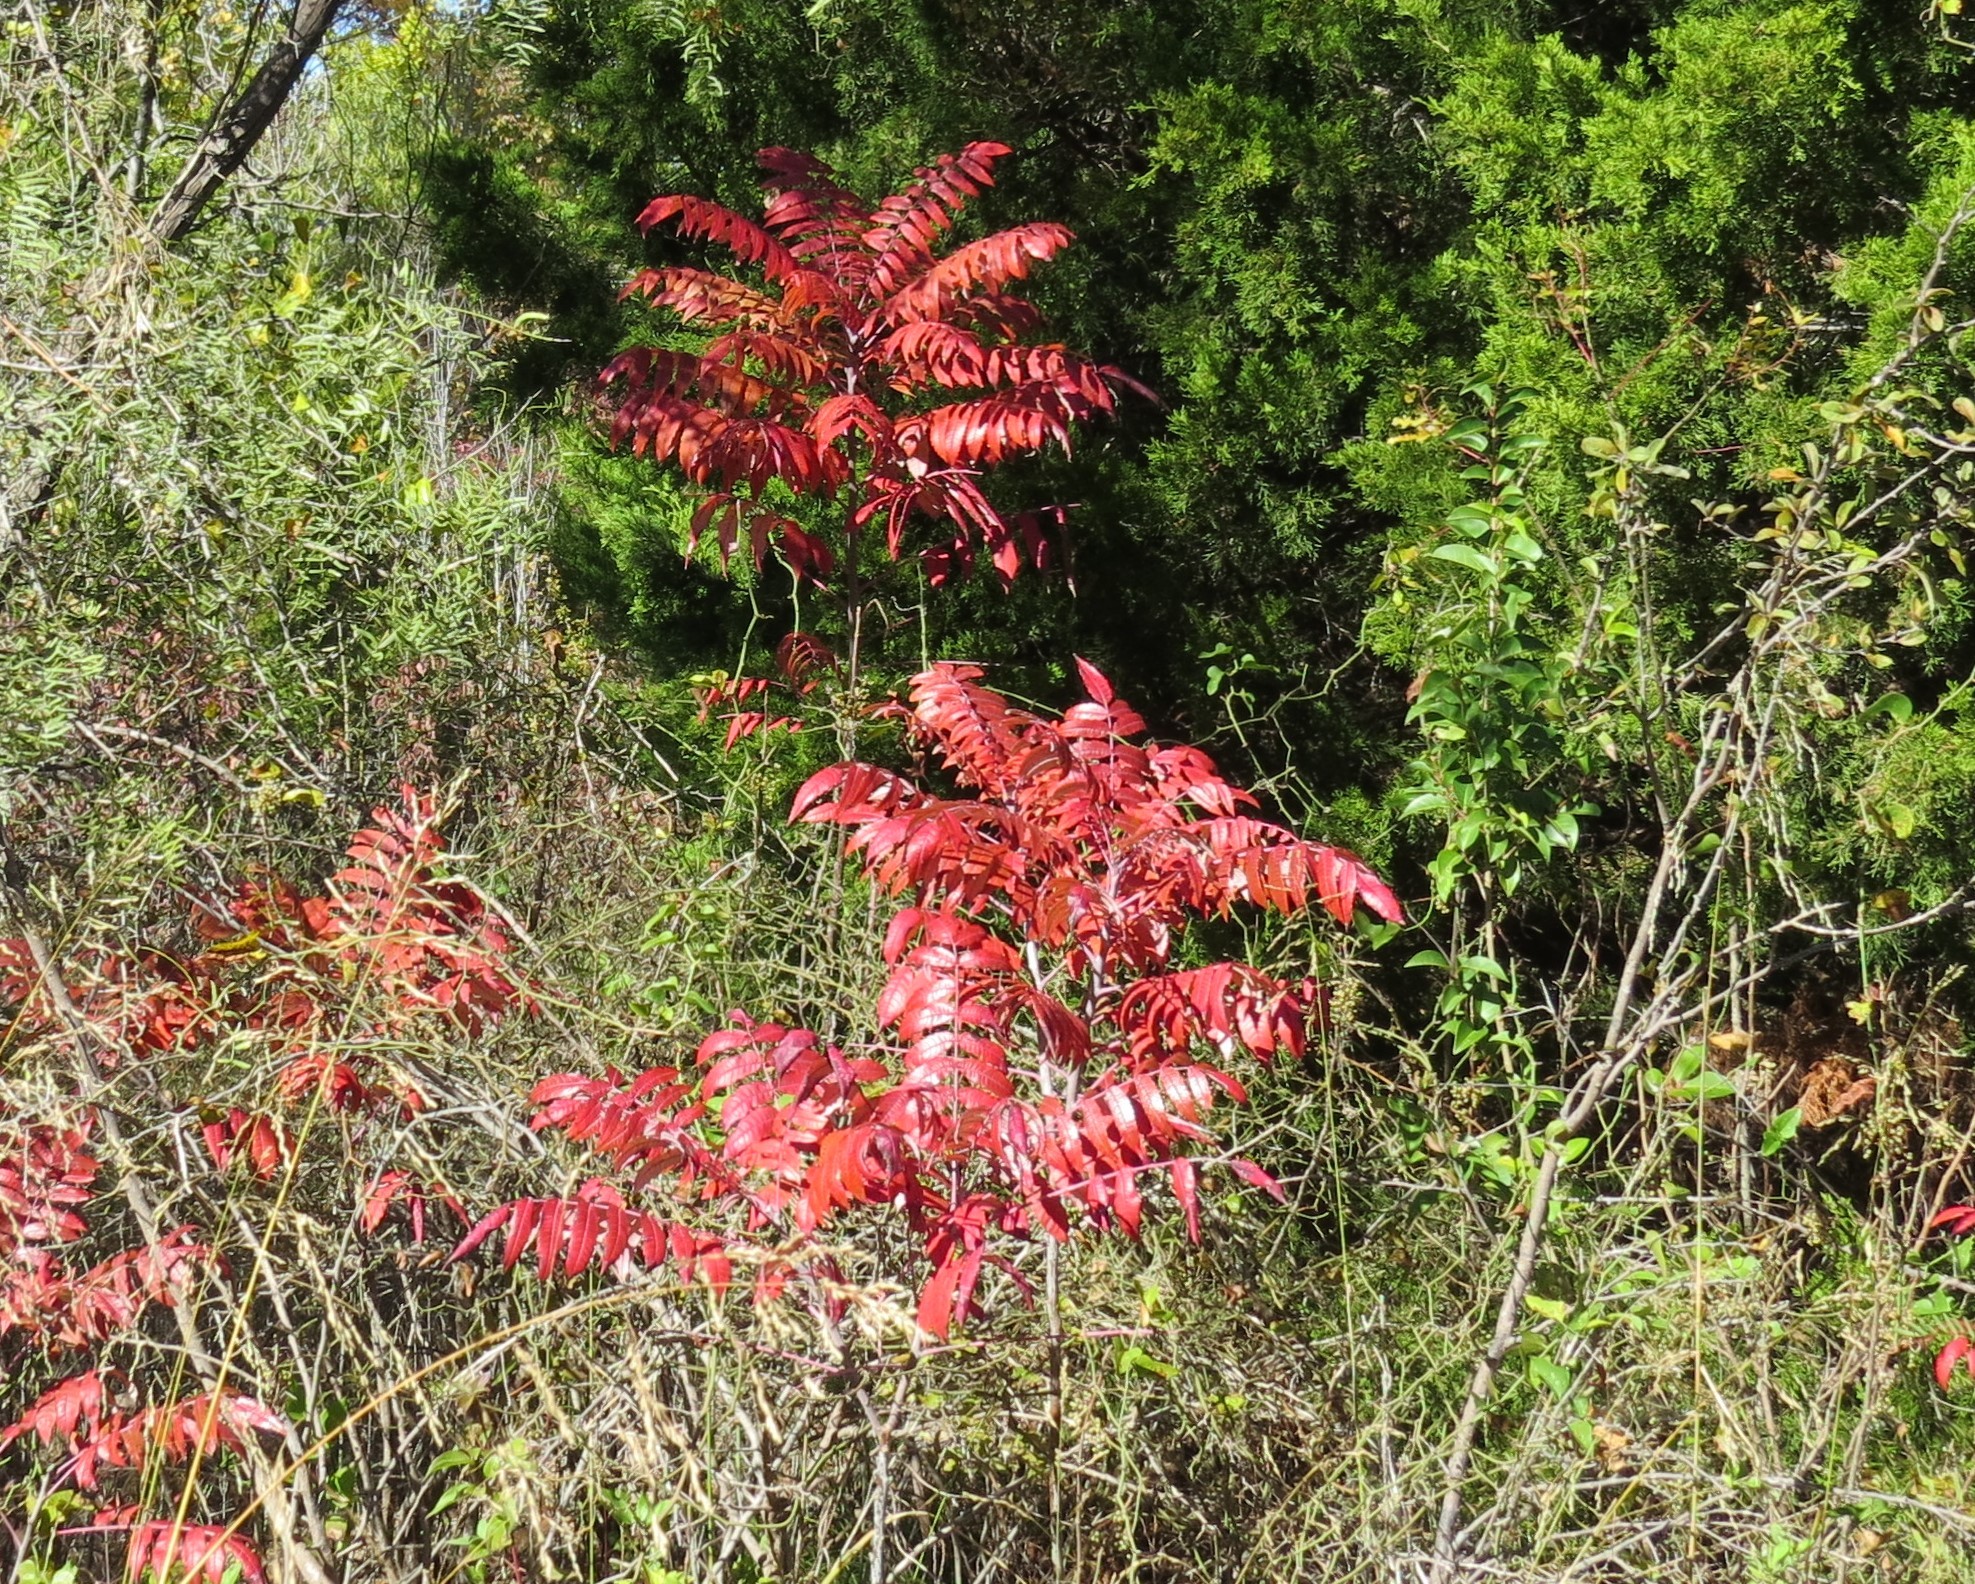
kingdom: Plantae
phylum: Tracheophyta
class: Magnoliopsida
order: Sapindales
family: Anacardiaceae
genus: Rhus
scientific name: Rhus glabra
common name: Scarlet sumac
